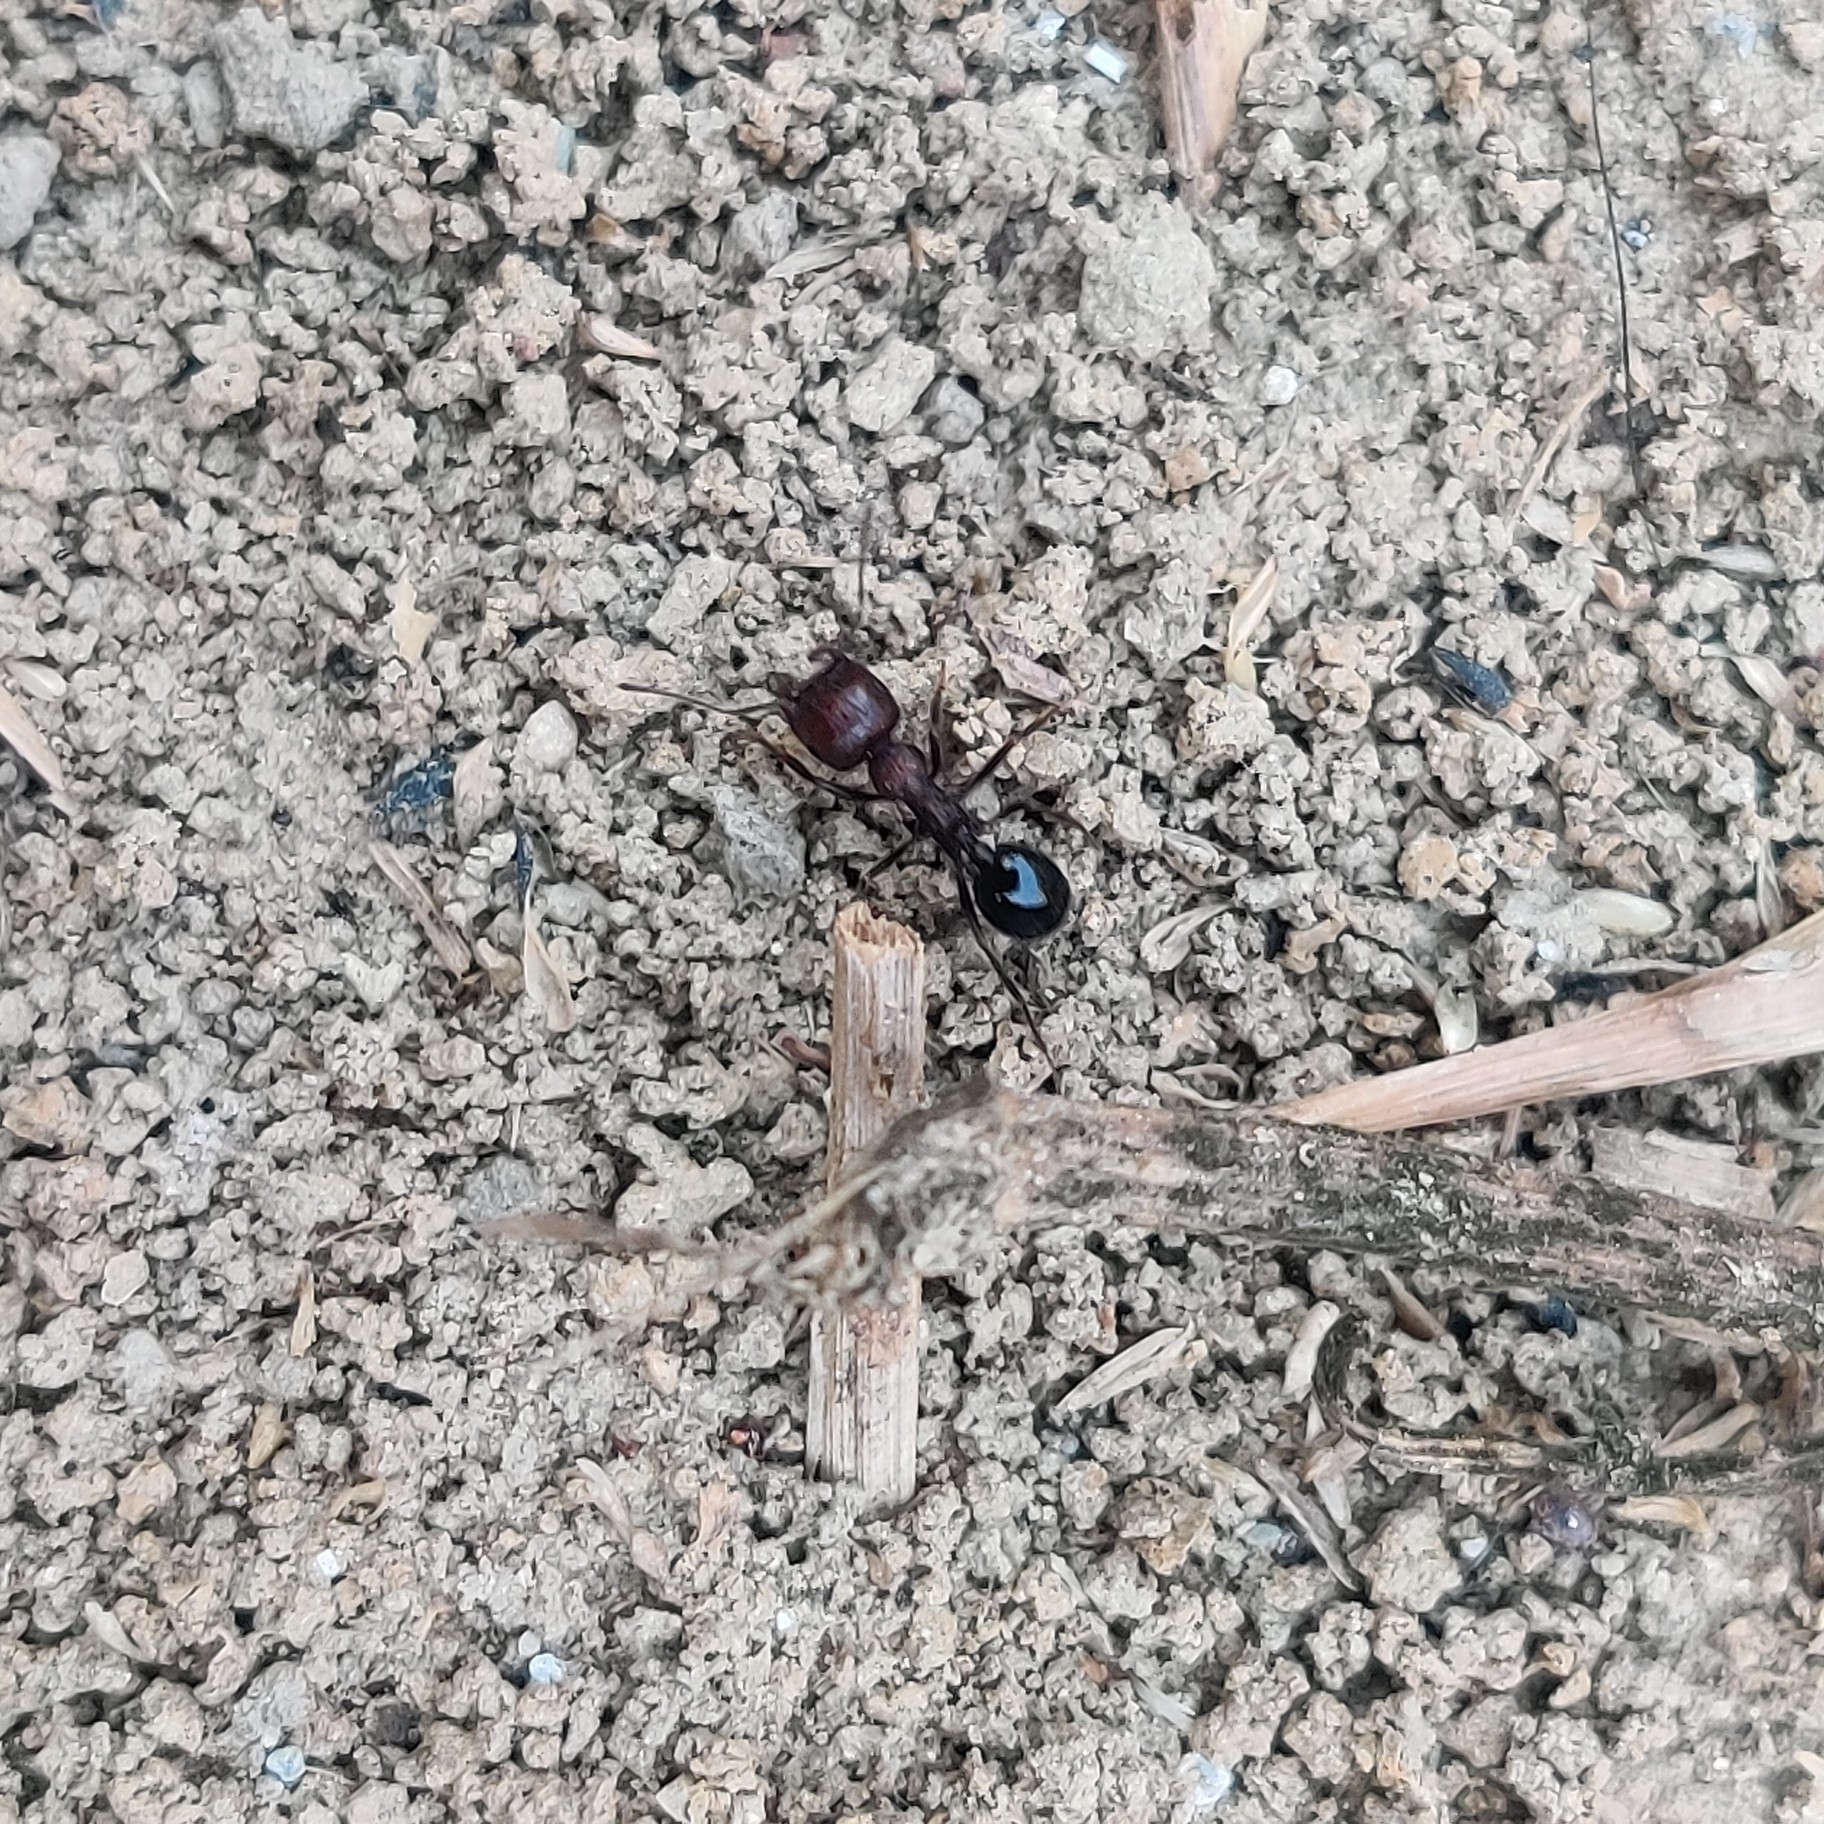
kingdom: Animalia
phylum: Arthropoda
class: Insecta
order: Hymenoptera
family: Formicidae
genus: Messor
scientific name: Messor instabilis
